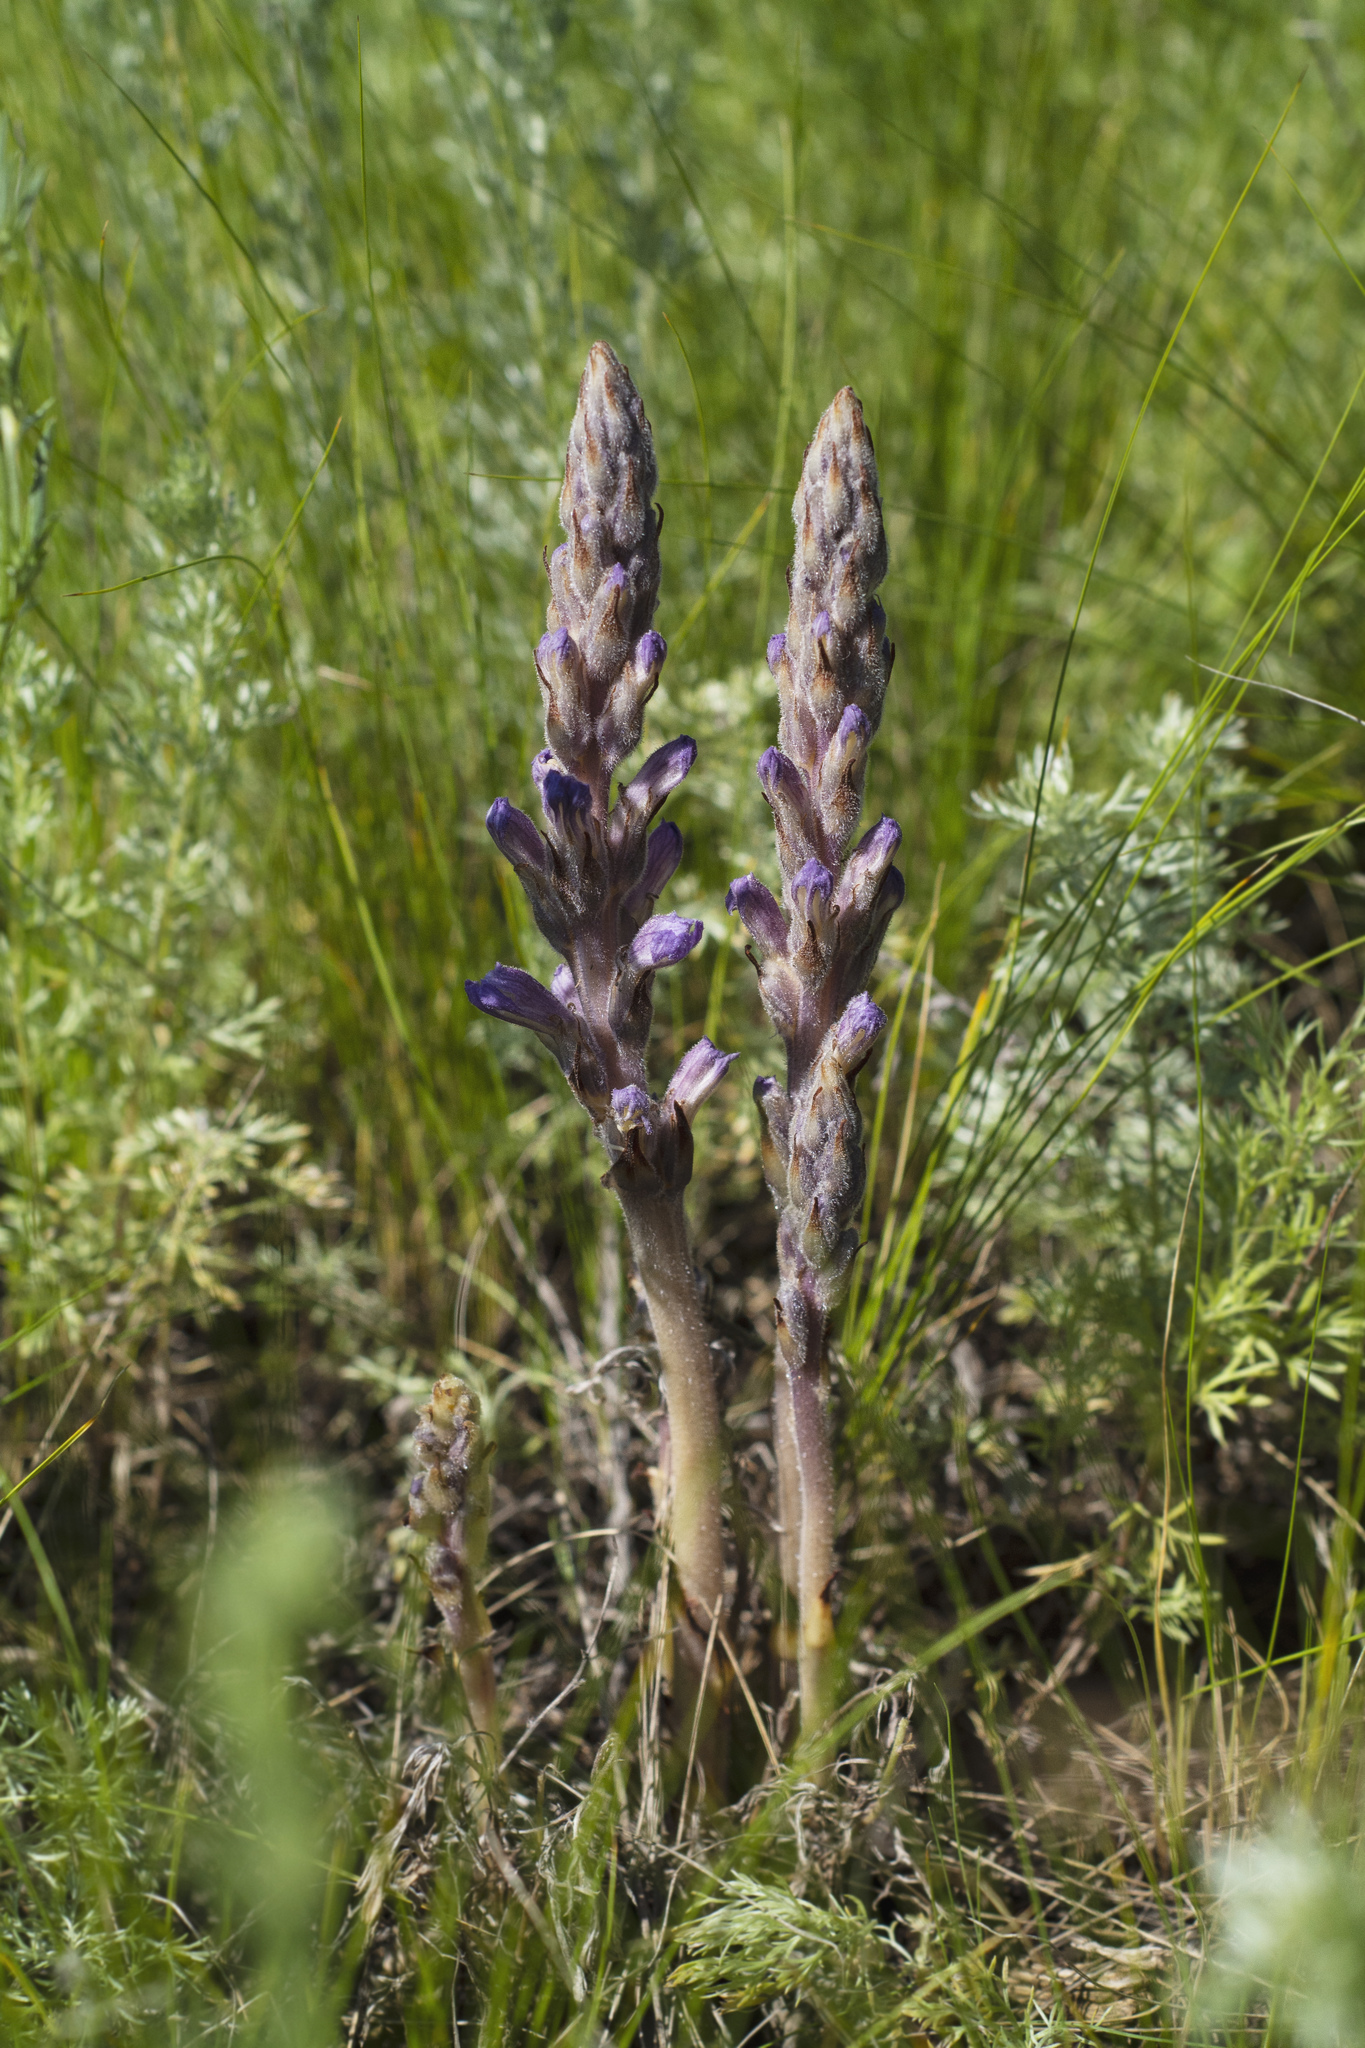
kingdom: Plantae
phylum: Tracheophyta
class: Magnoliopsida
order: Lamiales
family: Orobanchaceae
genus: Phelipanche
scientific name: Phelipanche caesia
